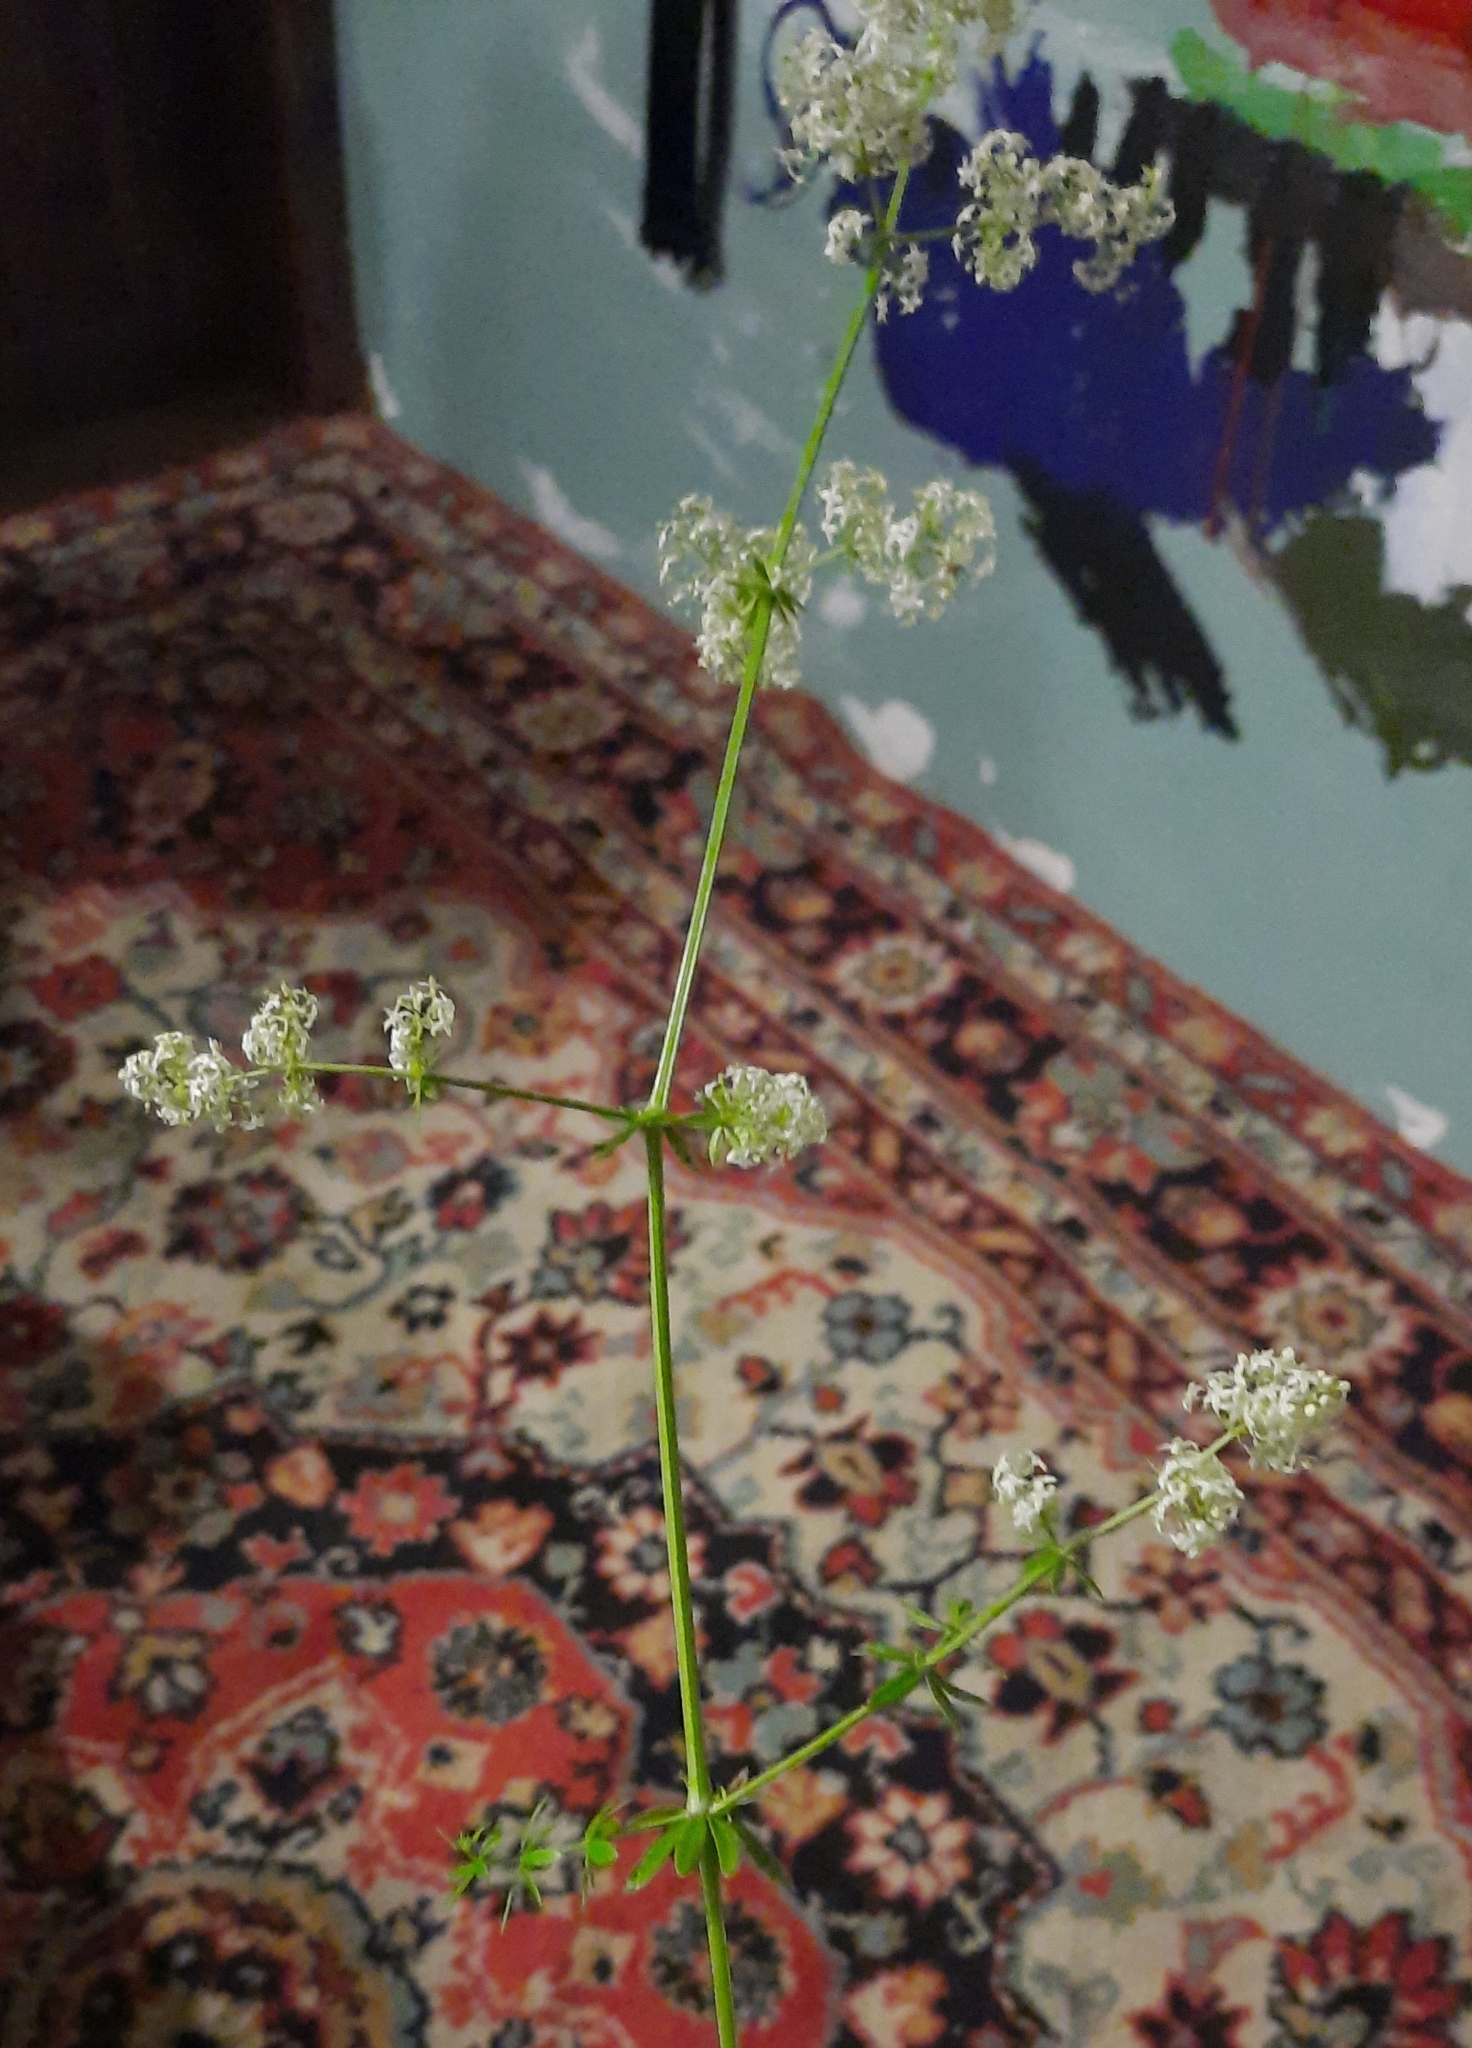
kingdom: Plantae
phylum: Tracheophyta
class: Magnoliopsida
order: Gentianales
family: Rubiaceae
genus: Galium
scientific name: Galium mollugo
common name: Hedge bedstraw
